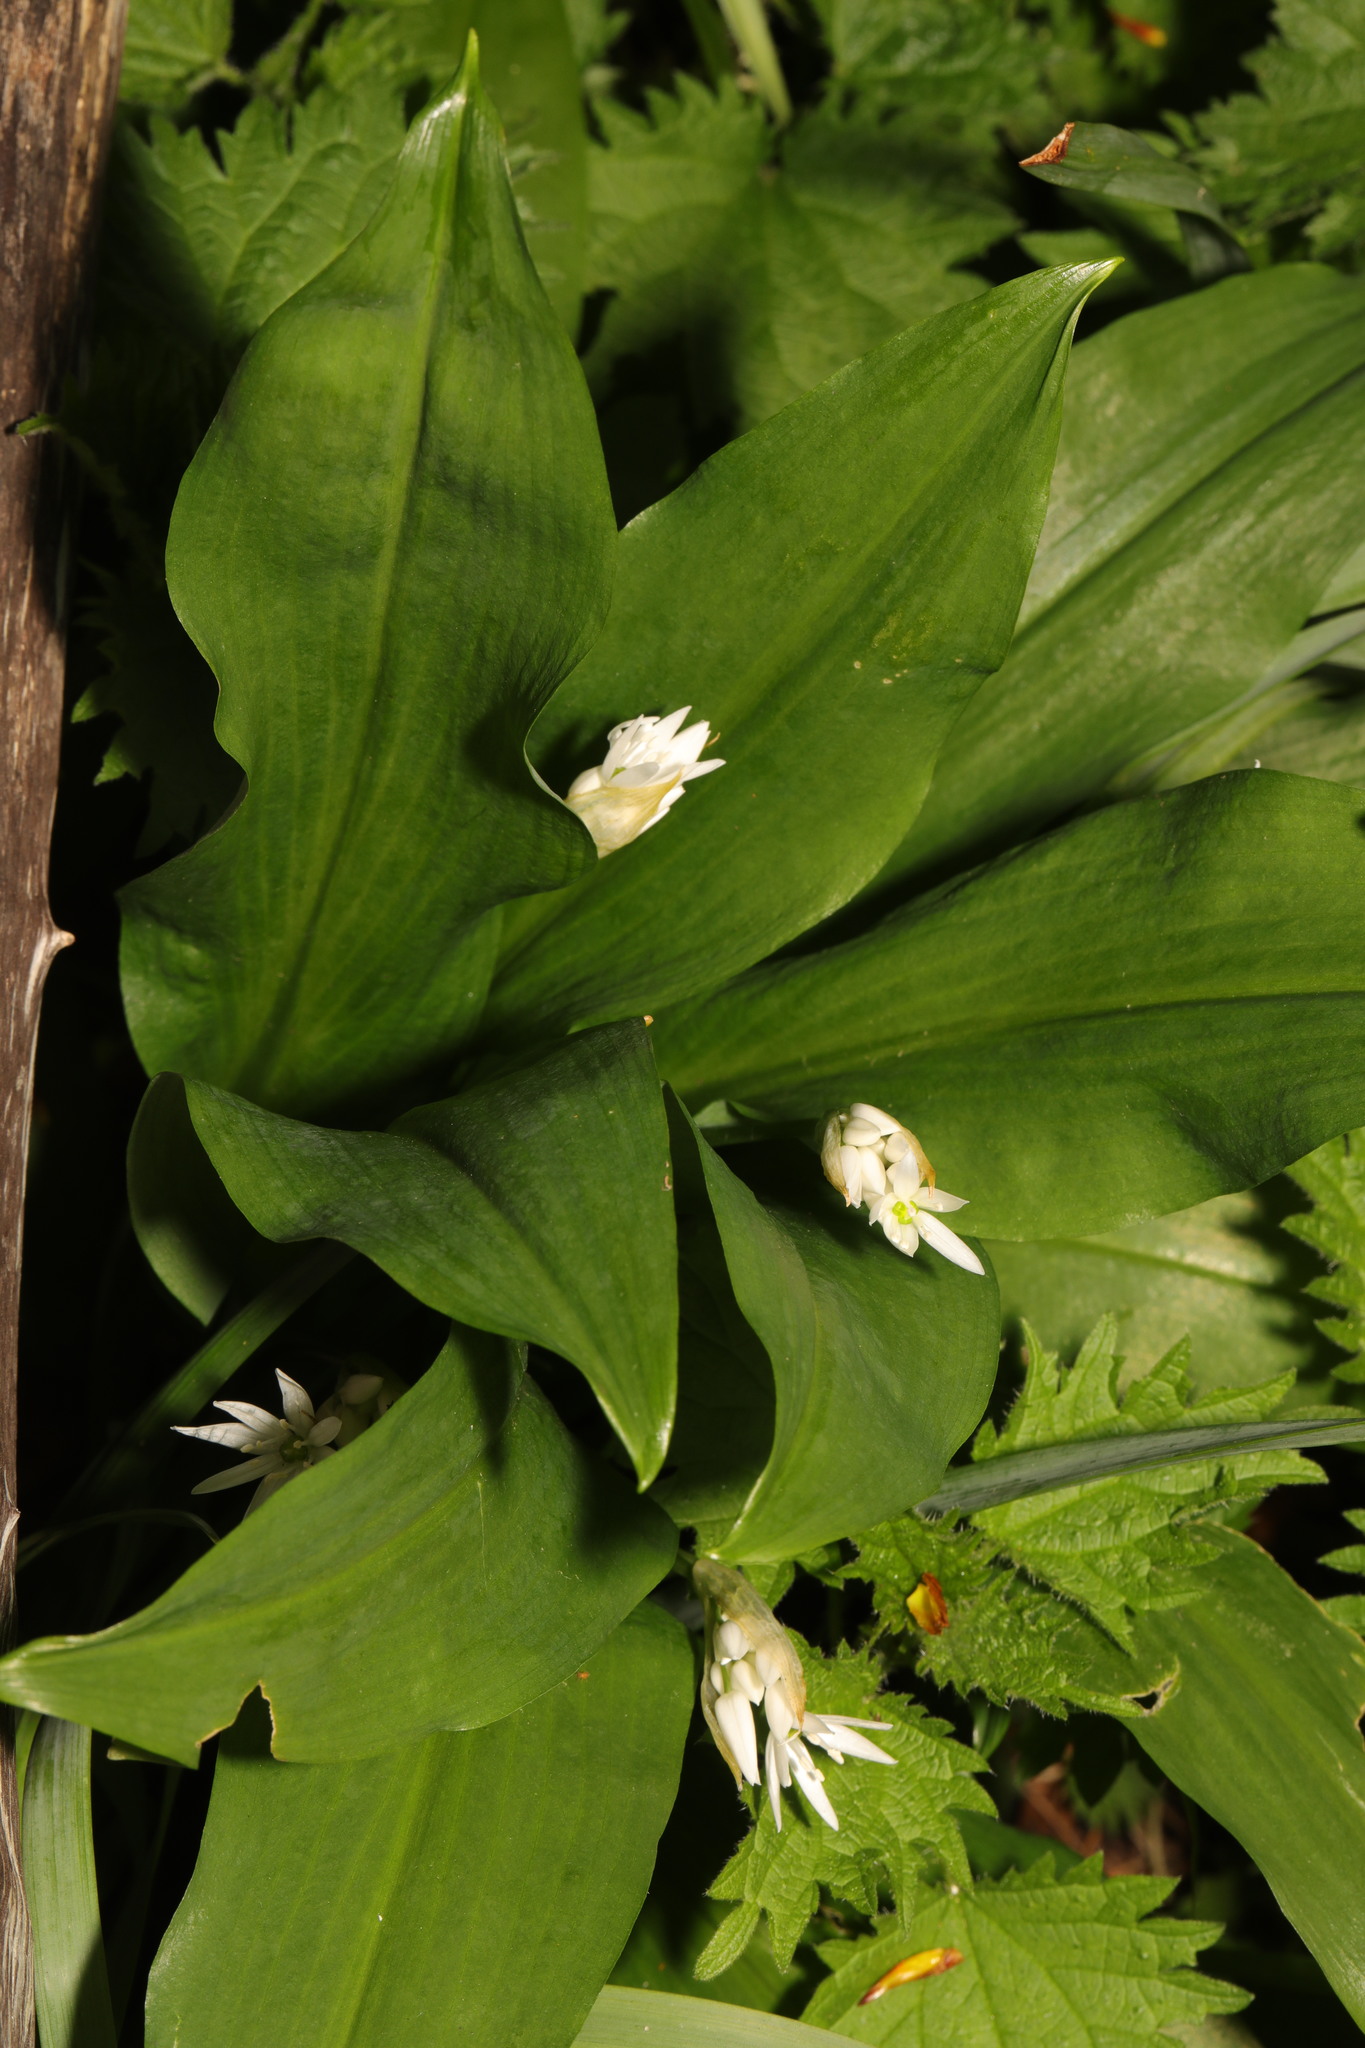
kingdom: Plantae
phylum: Tracheophyta
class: Liliopsida
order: Asparagales
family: Amaryllidaceae
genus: Allium
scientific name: Allium ursinum
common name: Ramsons
